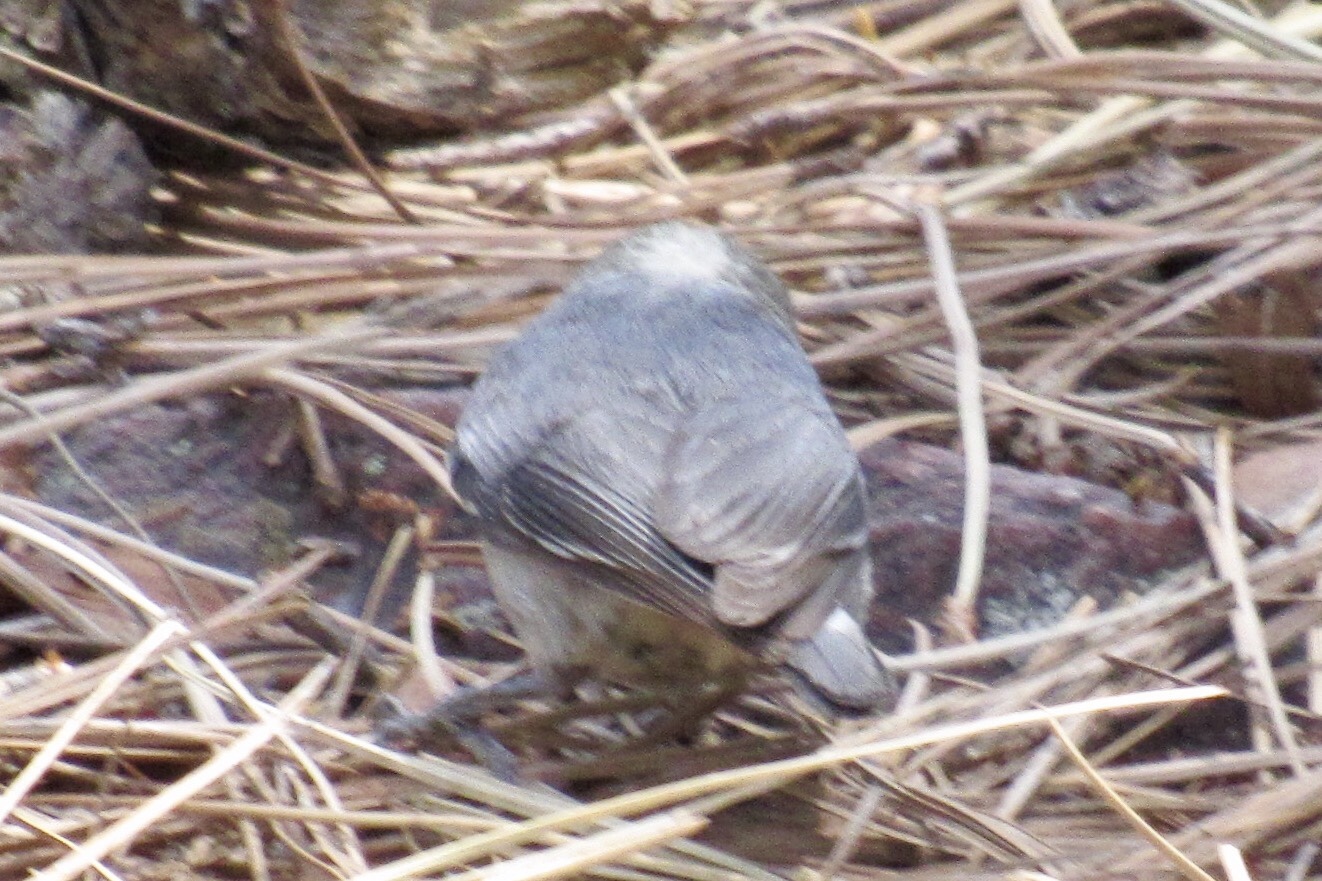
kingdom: Animalia
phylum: Chordata
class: Aves
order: Passeriformes
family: Sittidae
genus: Sitta
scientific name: Sitta pygmaea
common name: Pygmy nuthatch
